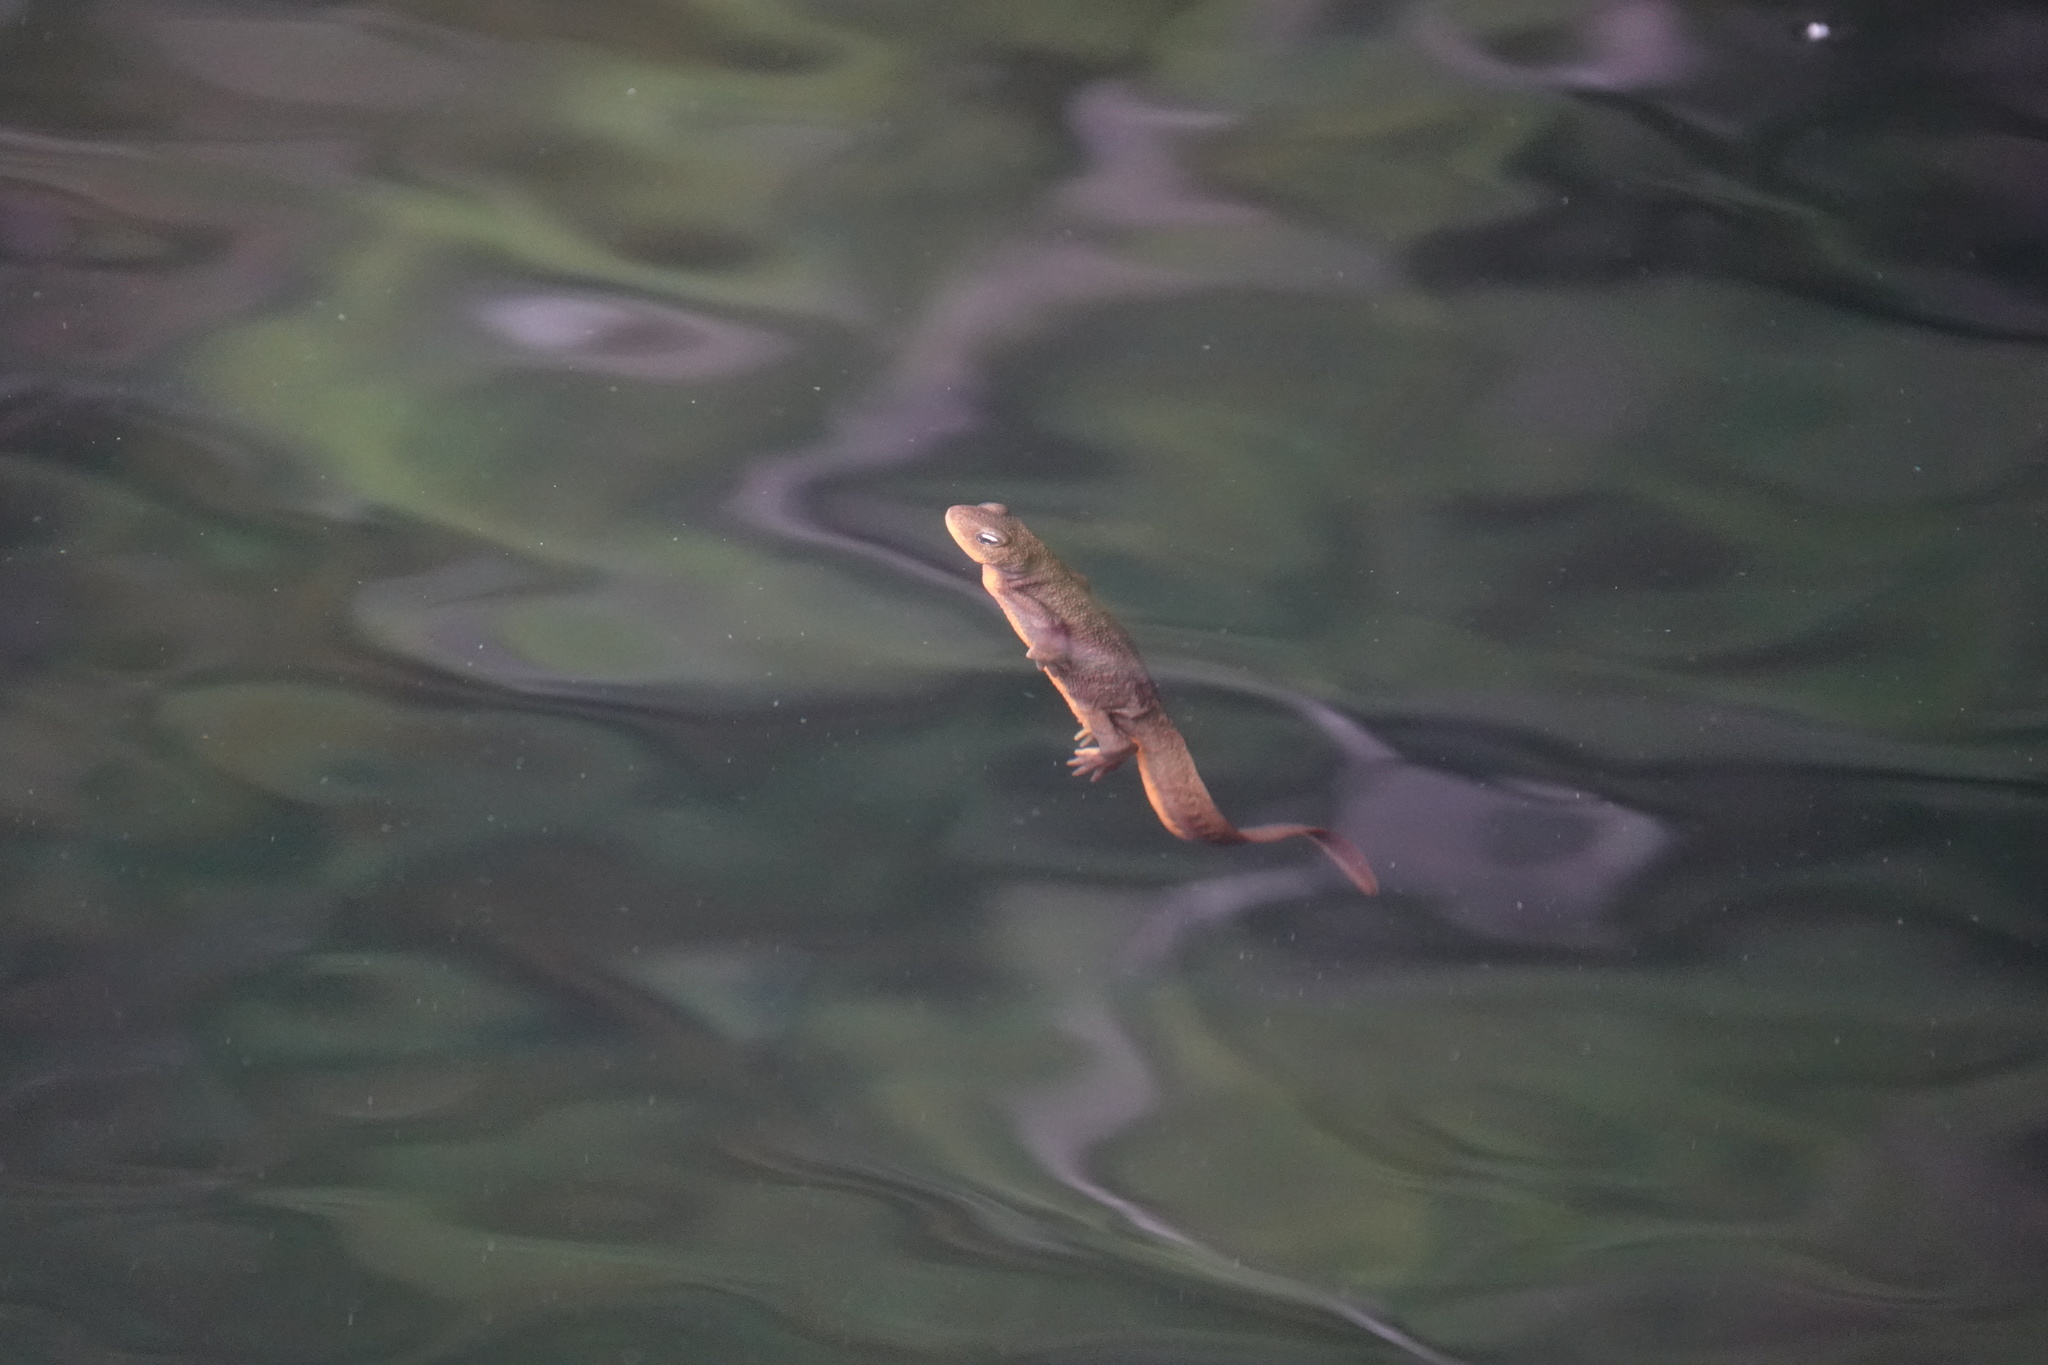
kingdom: Animalia
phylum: Chordata
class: Amphibia
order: Caudata
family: Salamandridae
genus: Taricha
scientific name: Taricha granulosa
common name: Roughskin newt
